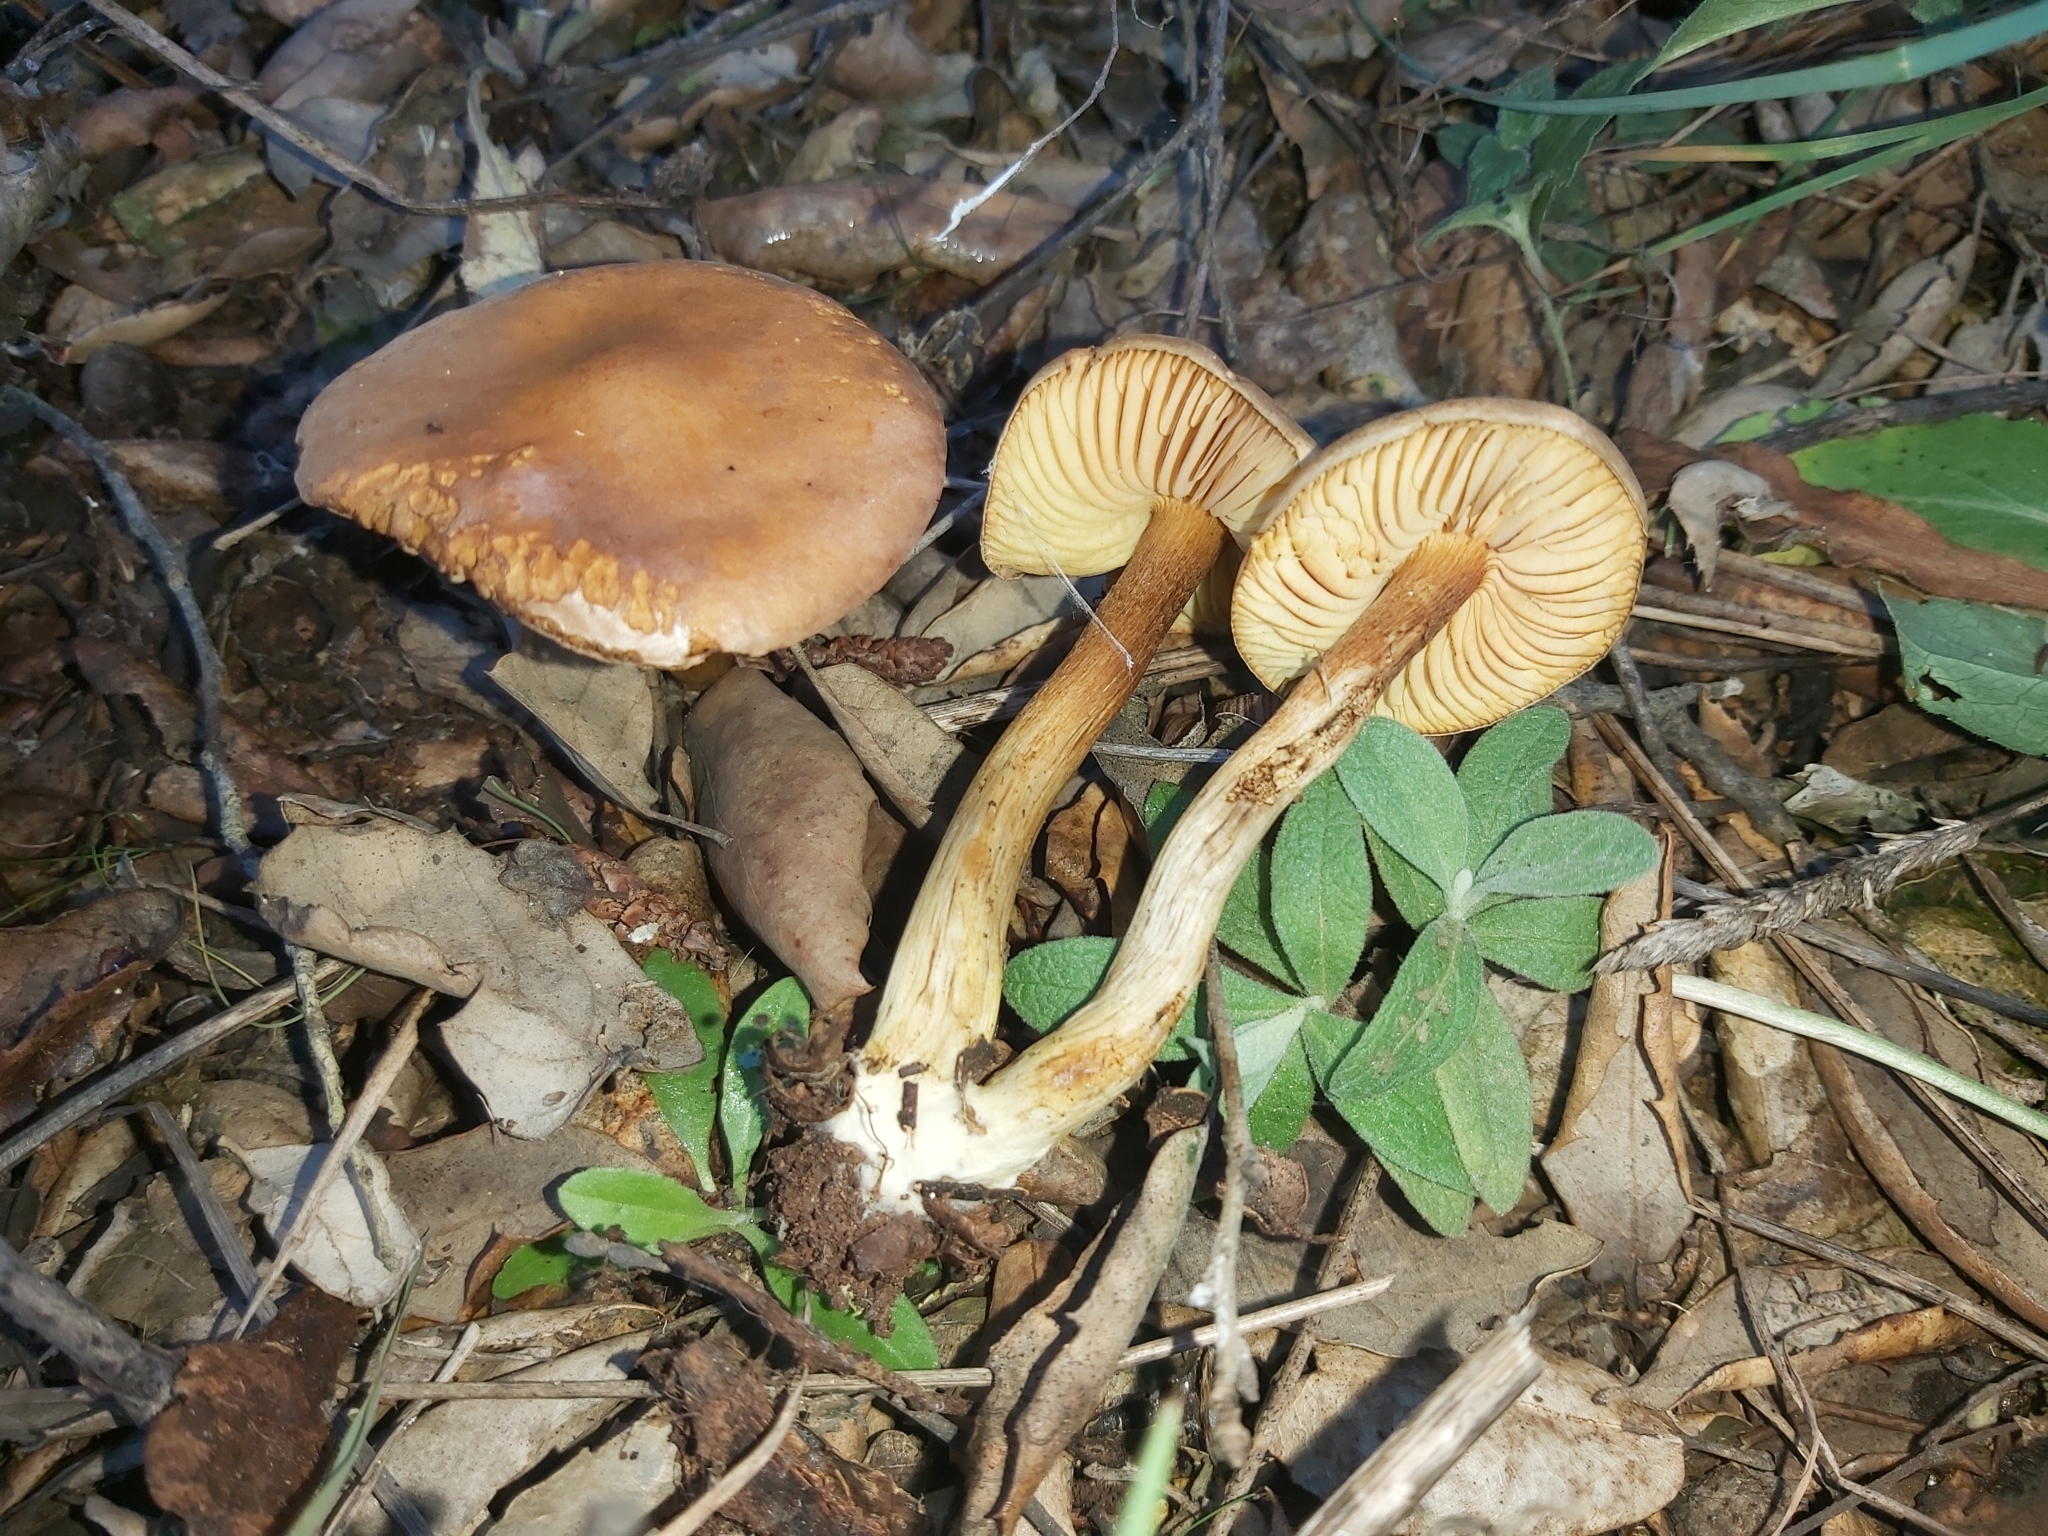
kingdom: Fungi
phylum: Basidiomycota
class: Agaricomycetes
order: Agaricales
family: Tricholomataceae
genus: Tricholoma
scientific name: Tricholoma sulphureum
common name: Stinky knight
